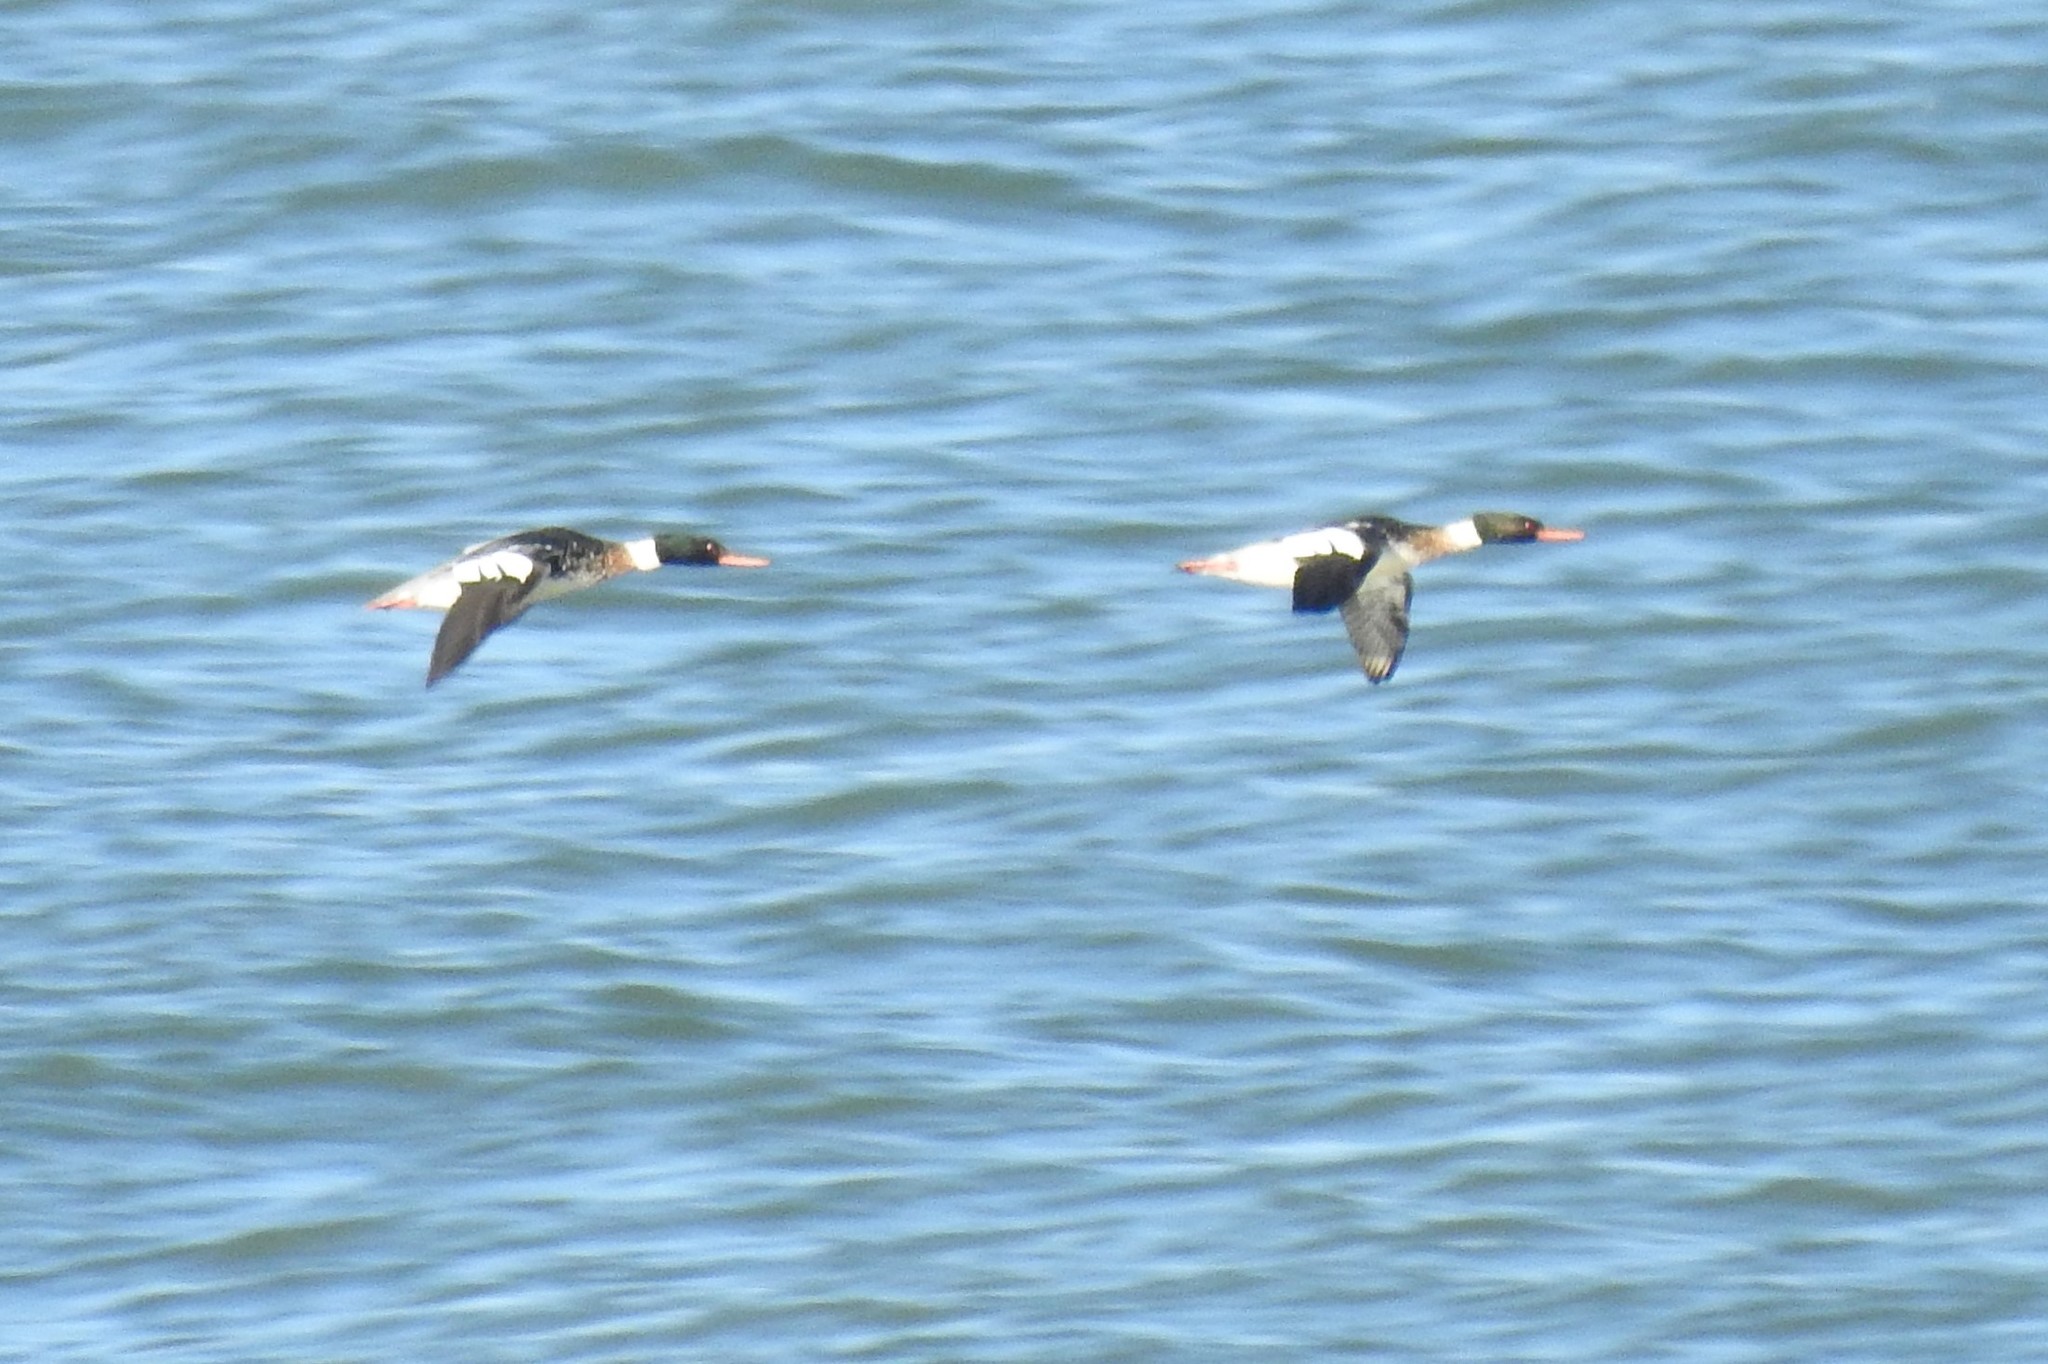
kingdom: Animalia
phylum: Chordata
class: Aves
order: Anseriformes
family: Anatidae
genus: Mergus
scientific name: Mergus serrator
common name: Red-breasted merganser
